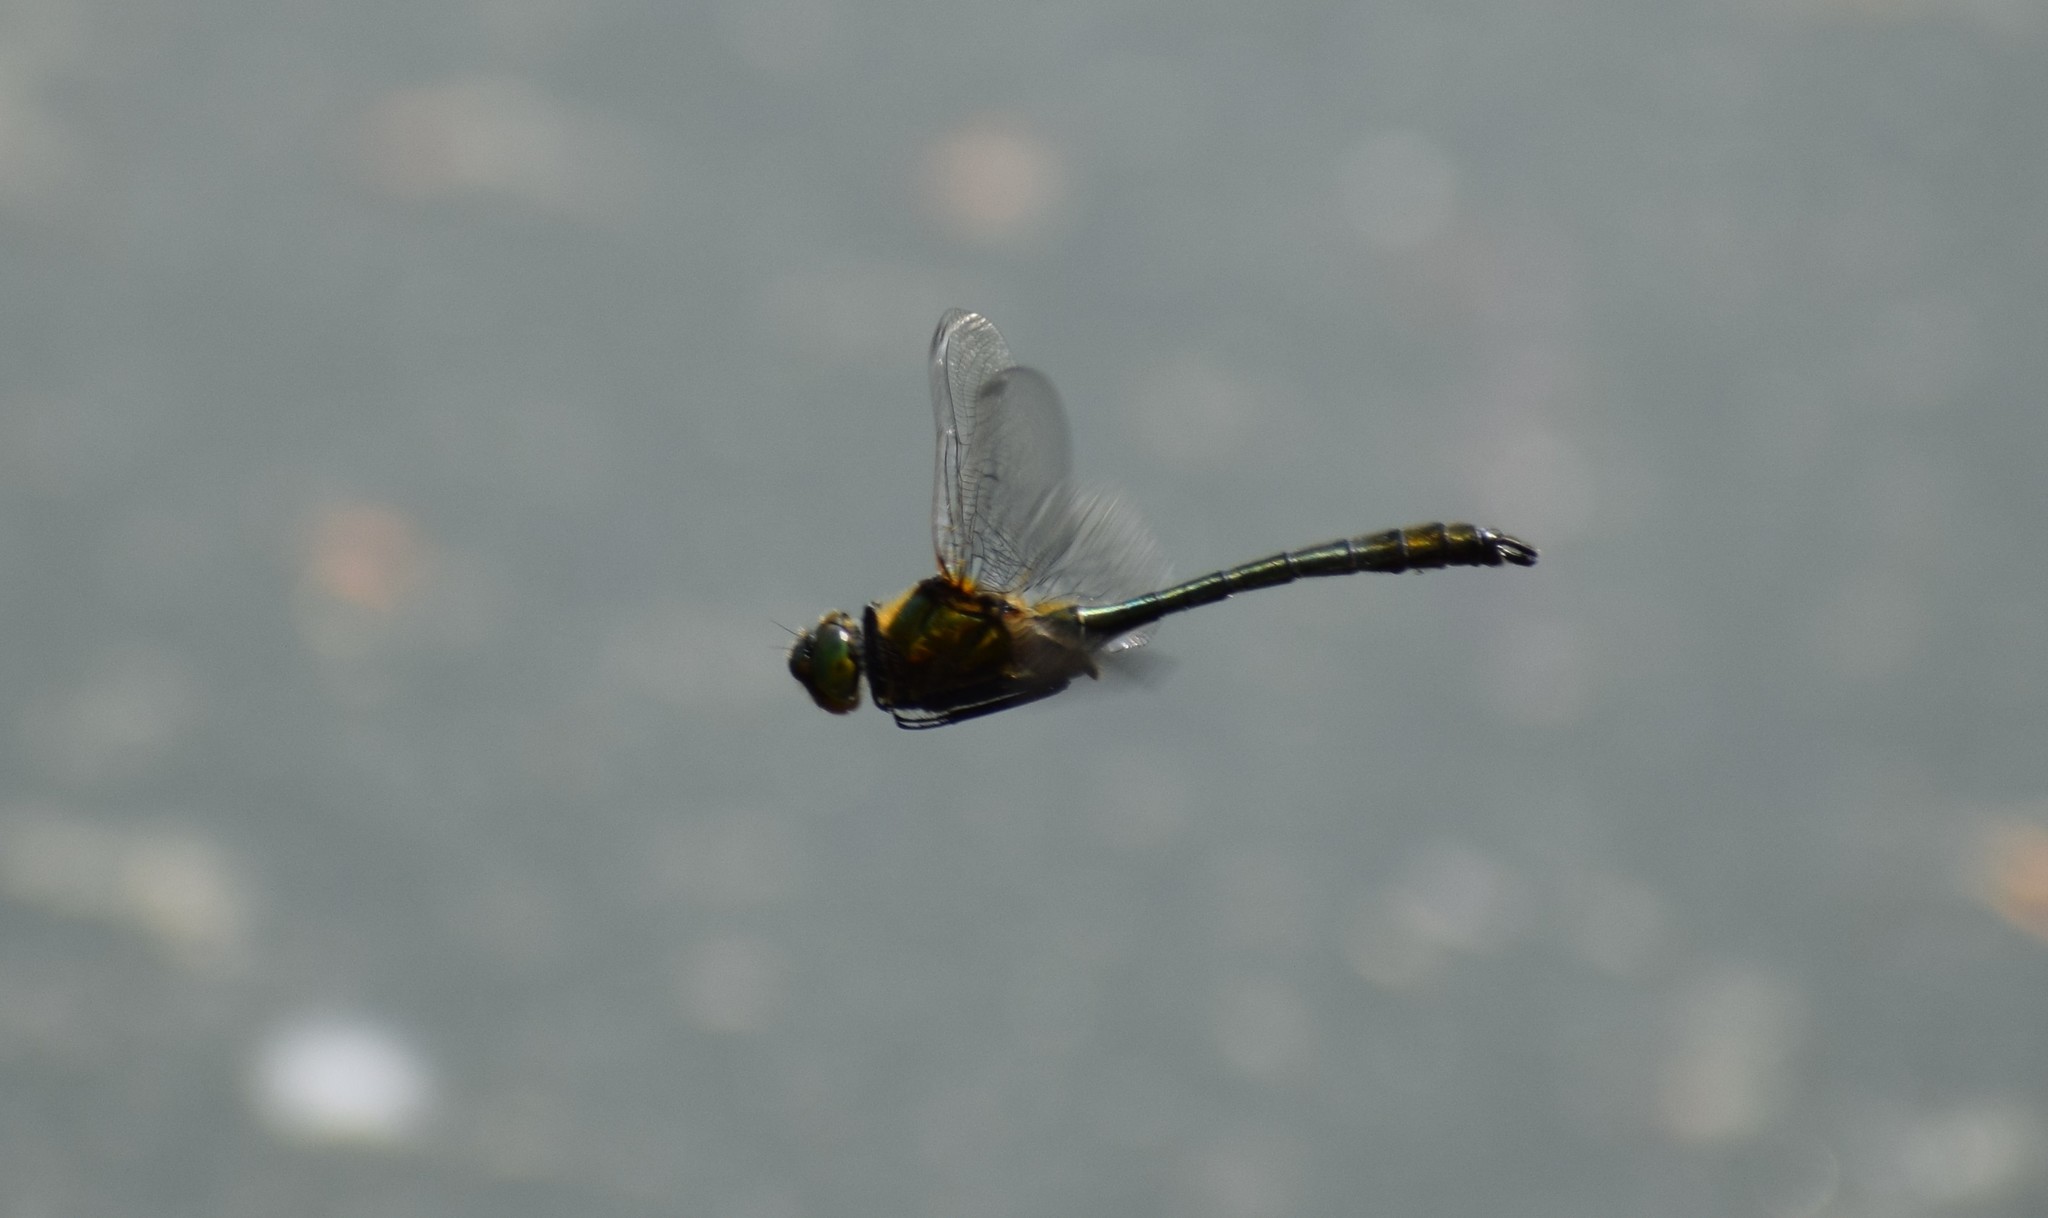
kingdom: Animalia
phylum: Arthropoda
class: Insecta
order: Odonata
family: Corduliidae
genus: Cordulia
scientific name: Cordulia aenea
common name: Downy emerald
